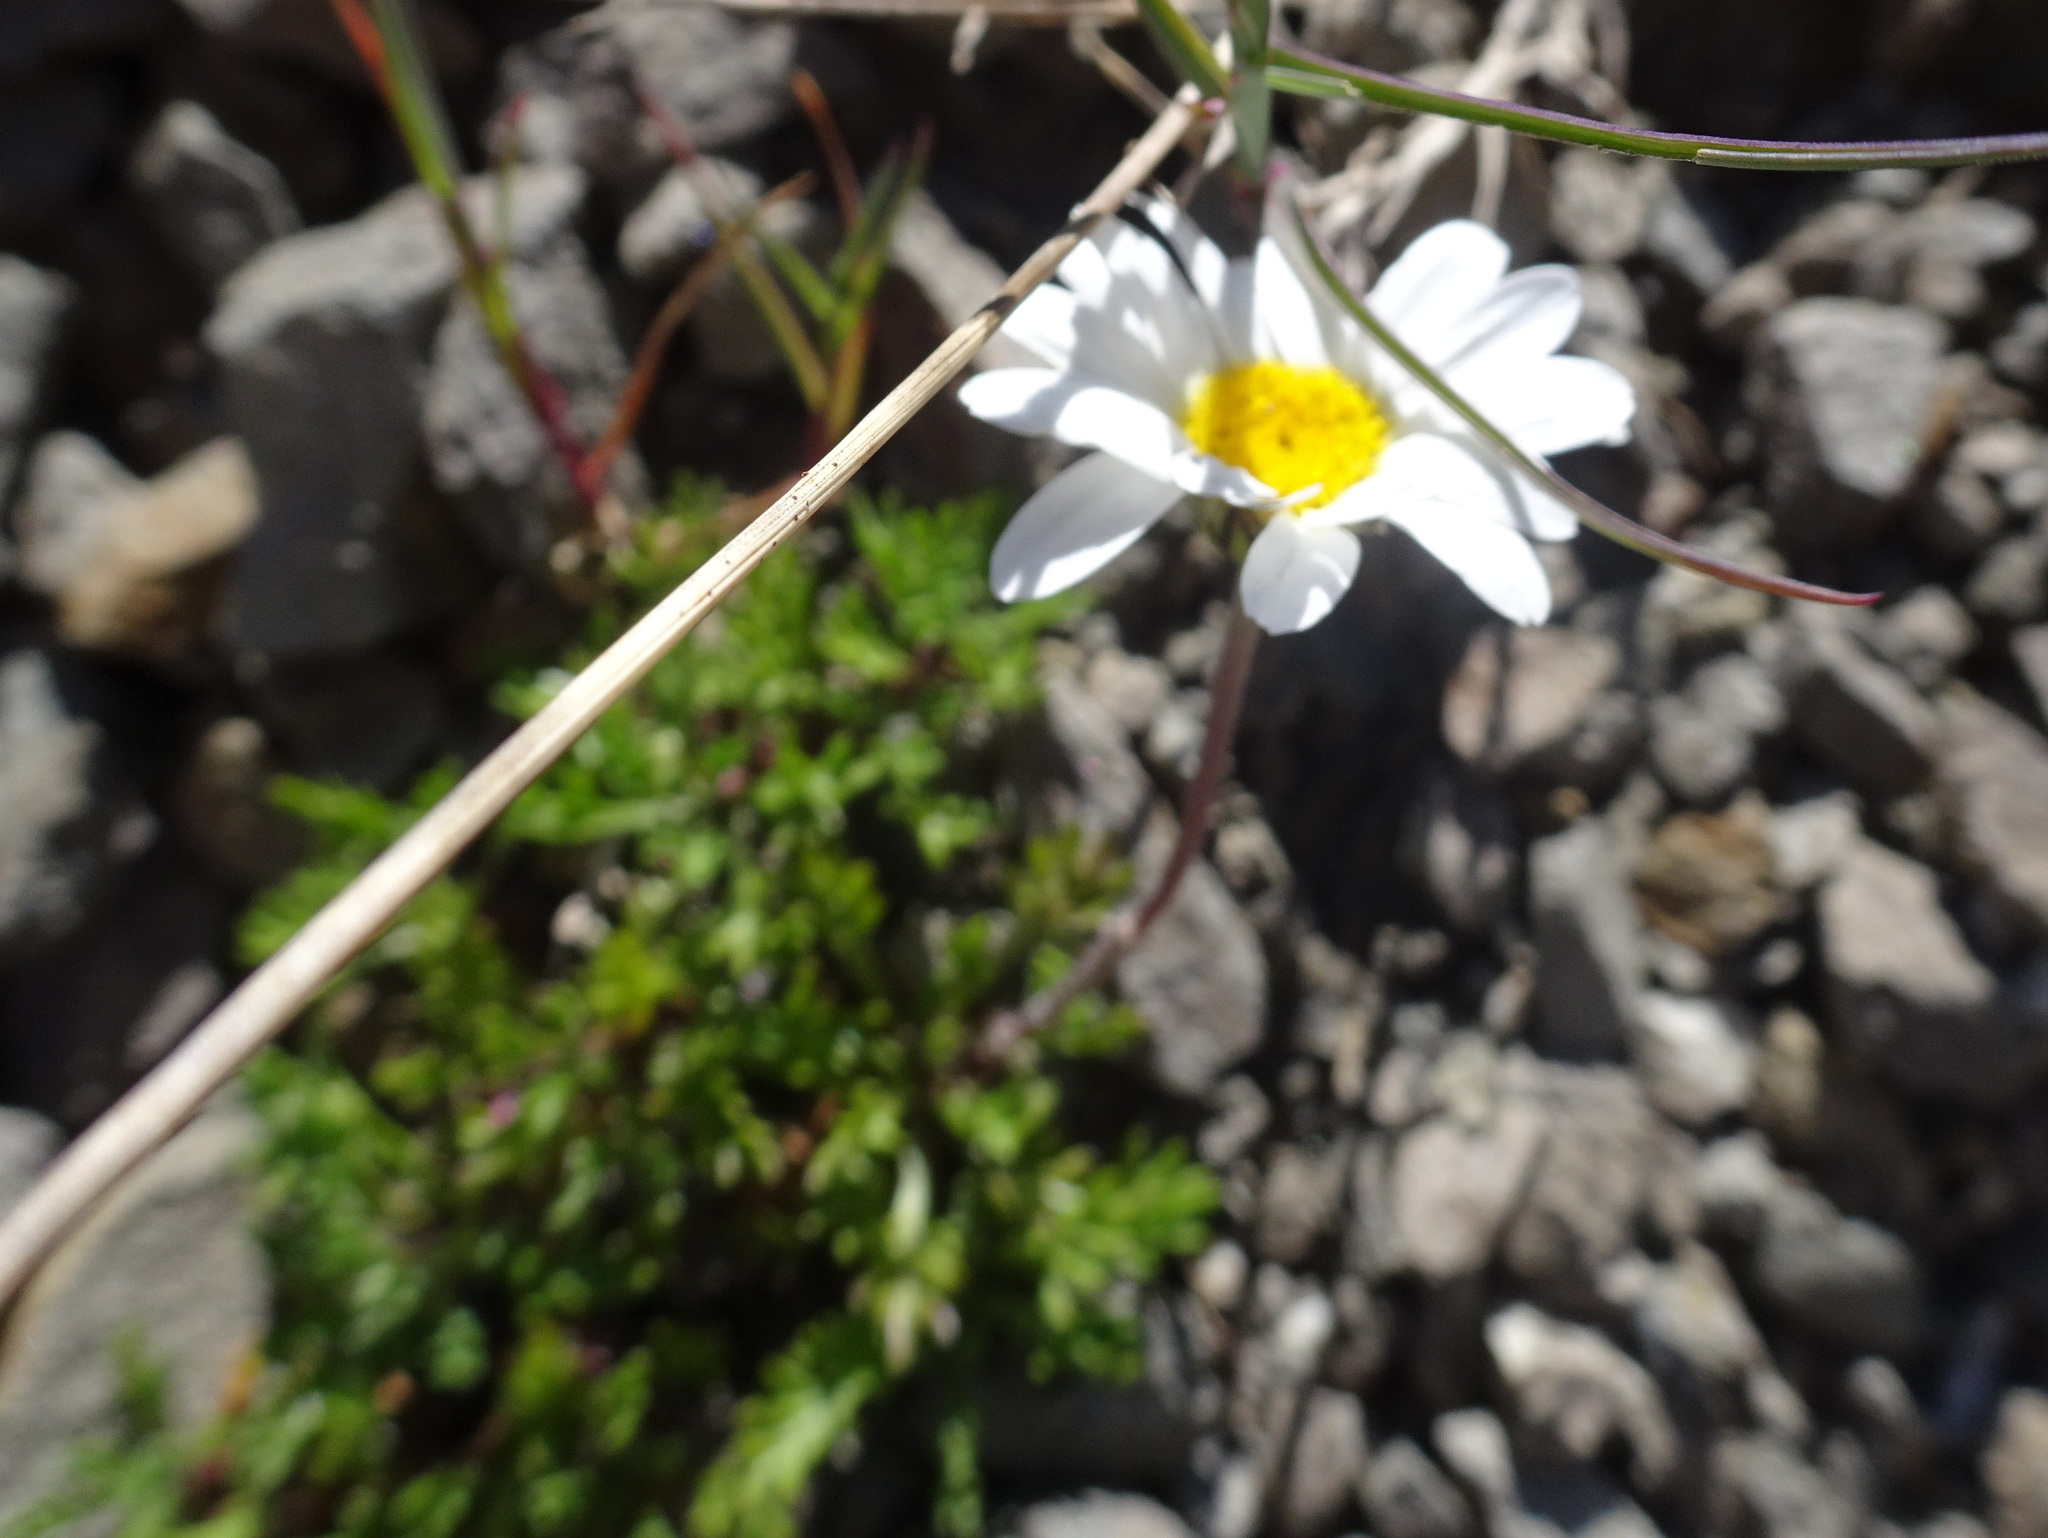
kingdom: Plantae
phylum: Tracheophyta
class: Magnoliopsida
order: Asterales
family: Asteraceae
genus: Leucanthemopsis
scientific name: Leucanthemopsis alpina
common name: Alpine moon daisy
